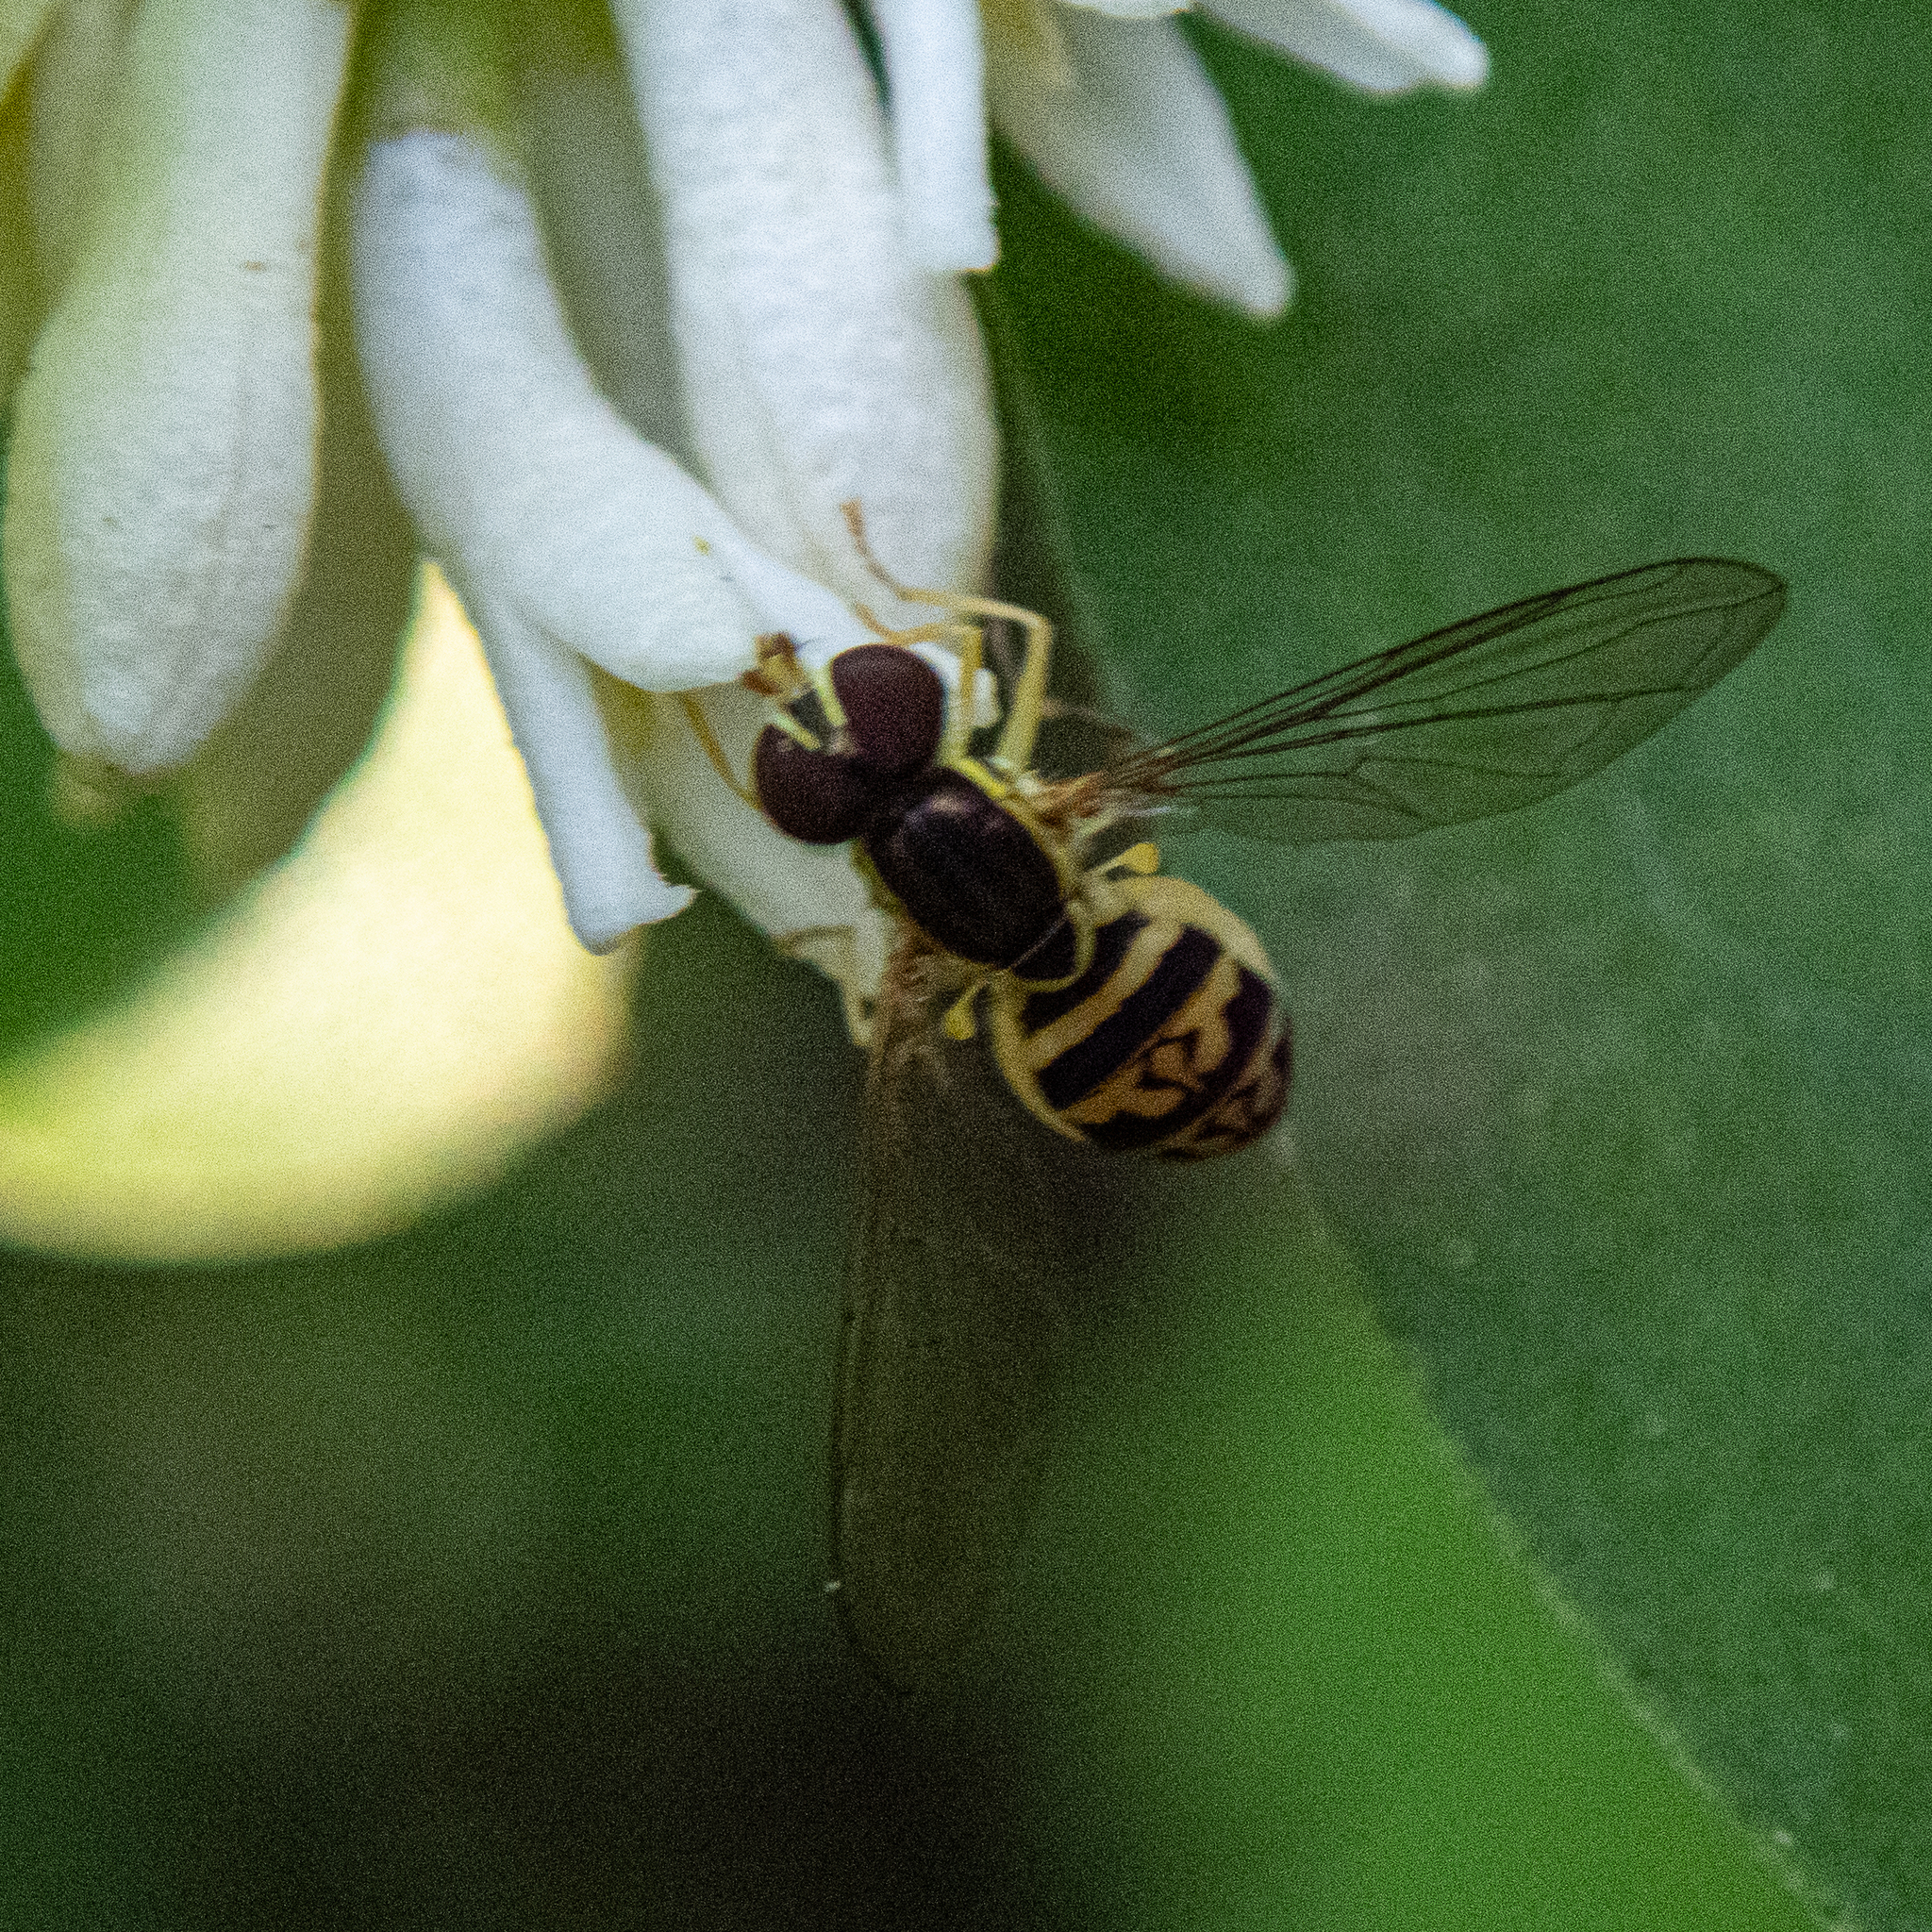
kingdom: Animalia
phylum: Arthropoda
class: Insecta
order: Diptera
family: Syrphidae
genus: Toxomerus
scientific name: Toxomerus geminatus
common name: Eastern calligrapher
